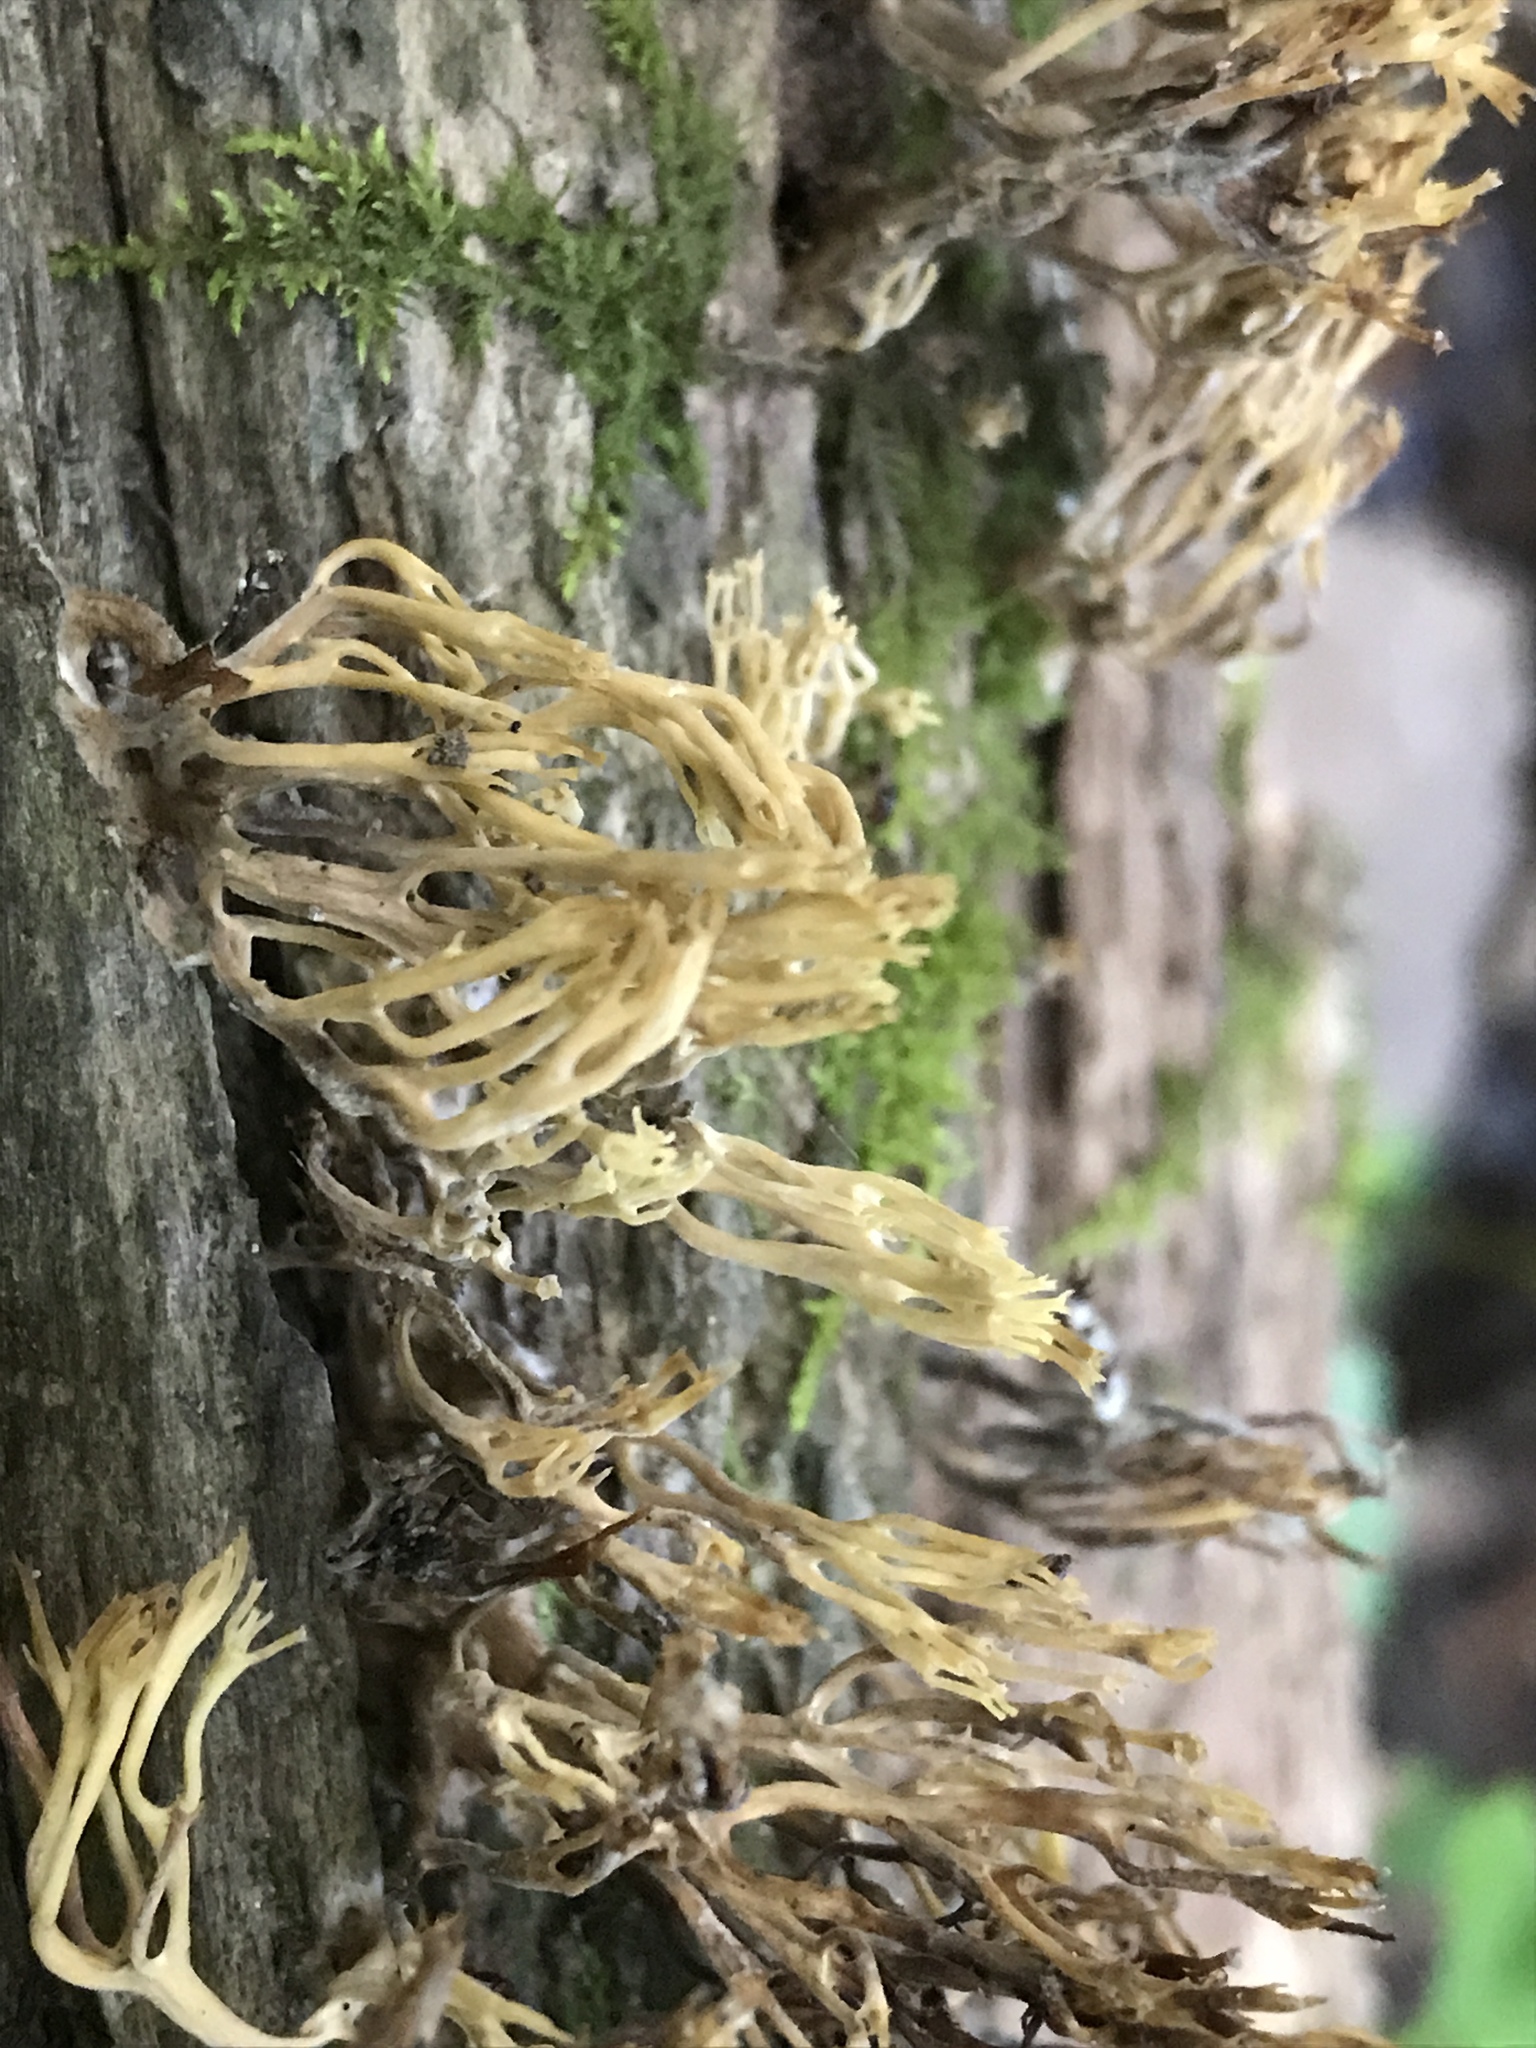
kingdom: Fungi
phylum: Basidiomycota
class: Agaricomycetes
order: Russulales
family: Auriscalpiaceae
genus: Artomyces
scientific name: Artomyces pyxidatus
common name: Crown-tipped coral fungus
